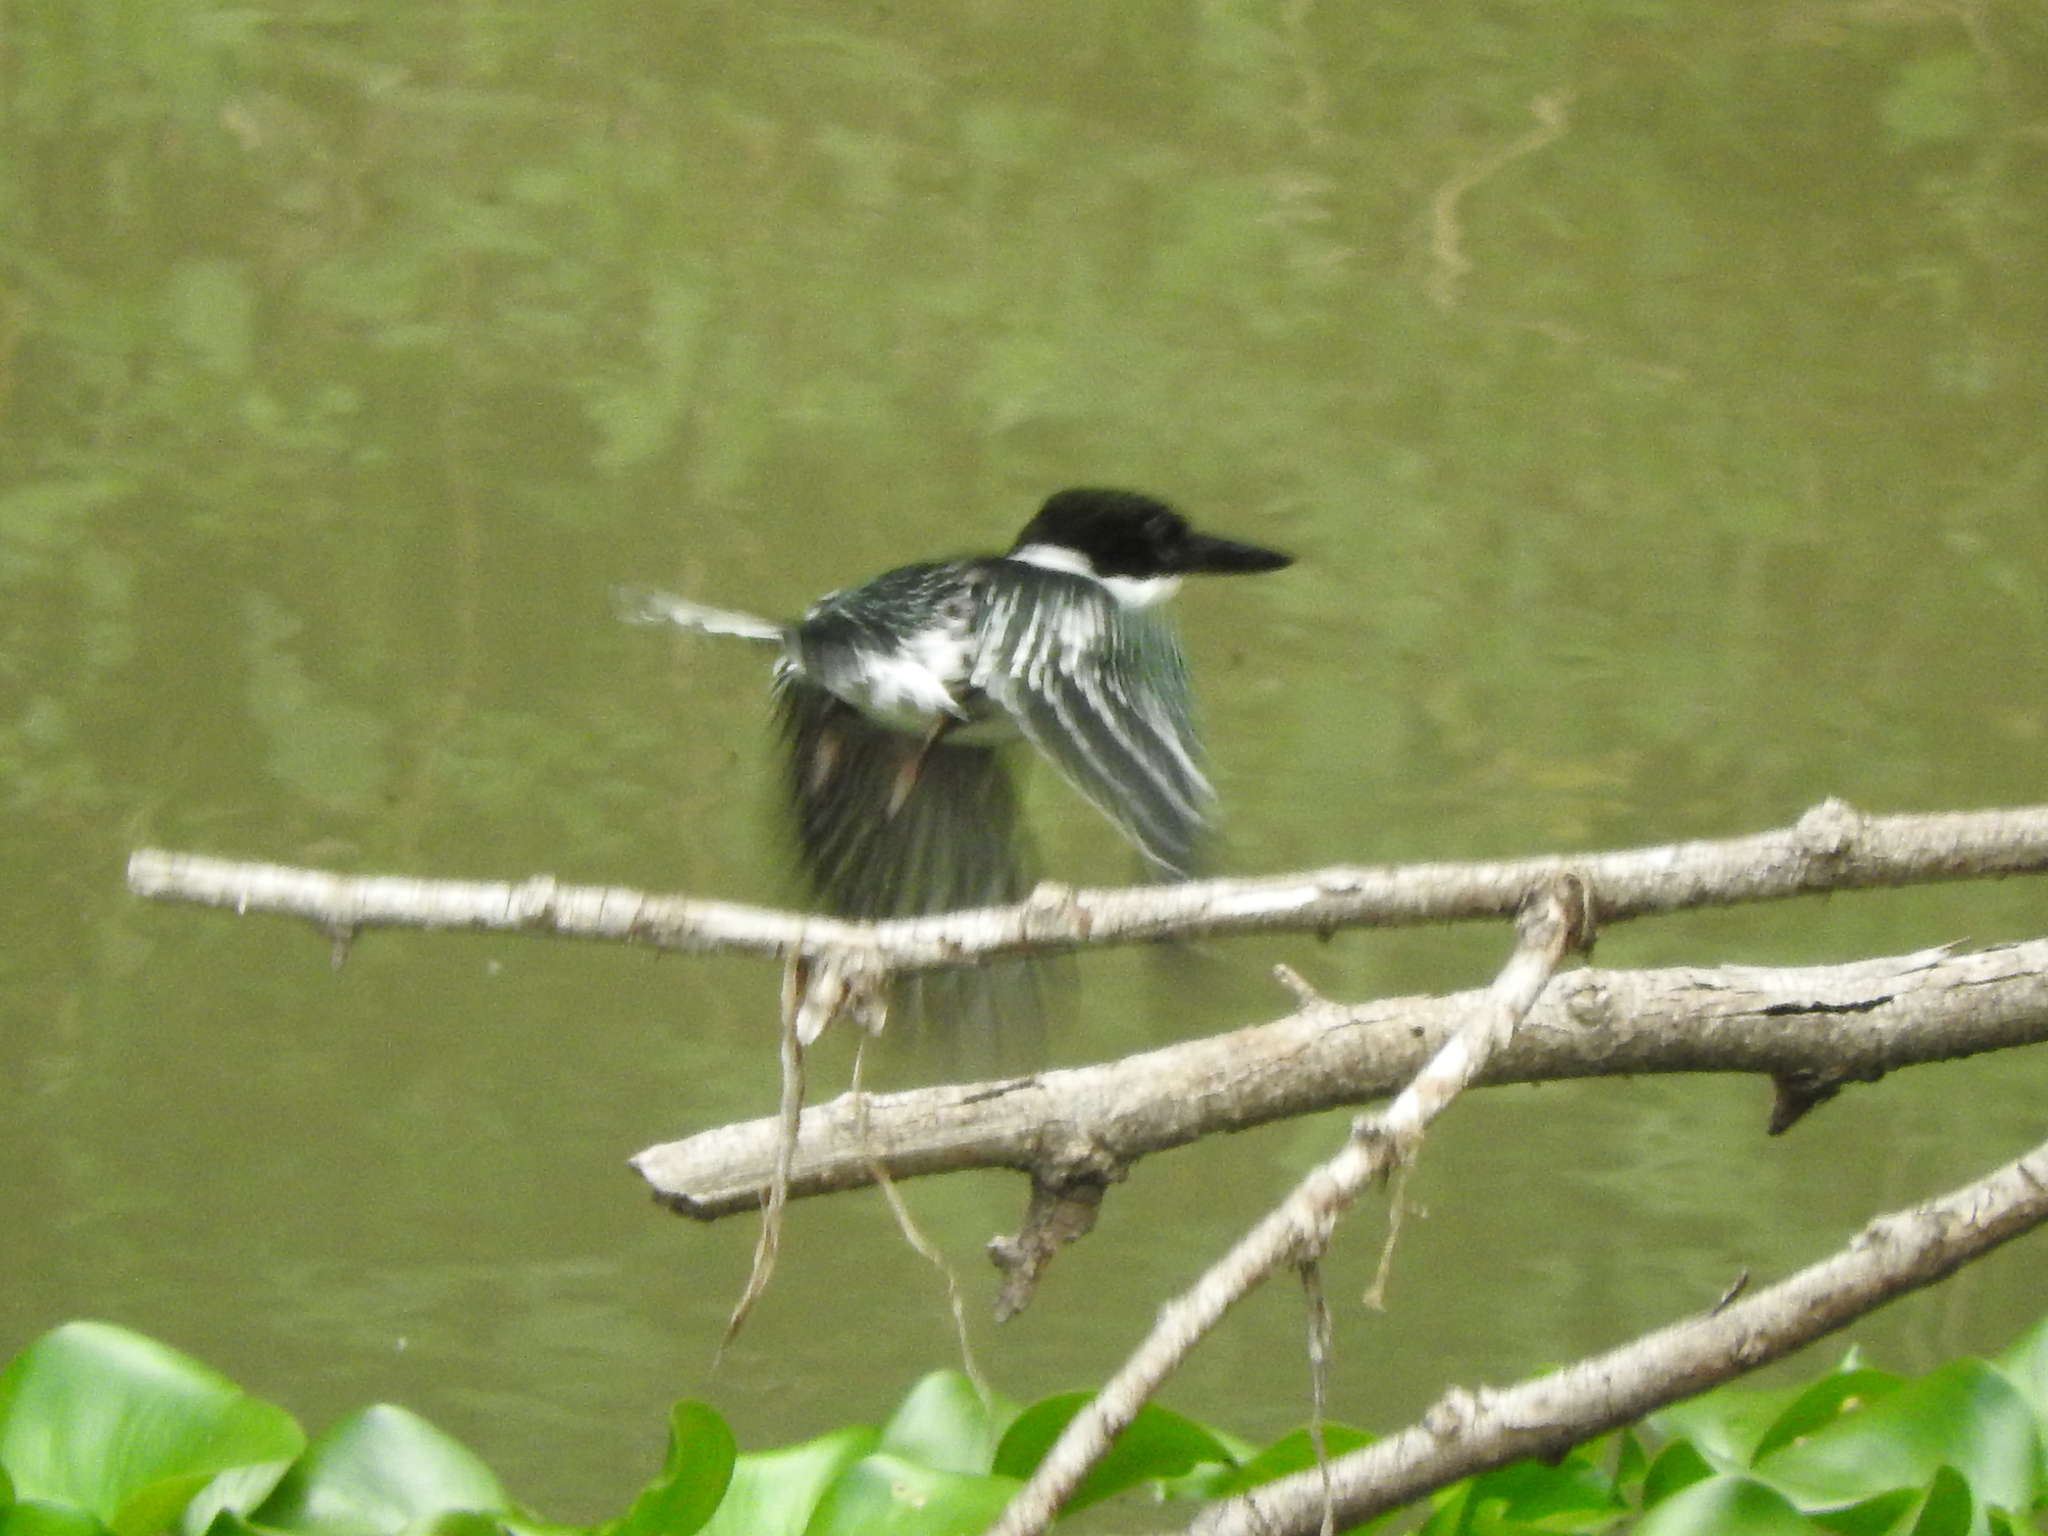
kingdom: Animalia
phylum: Chordata
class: Aves
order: Coraciiformes
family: Alcedinidae
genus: Chloroceryle
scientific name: Chloroceryle americana
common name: Green kingfisher
